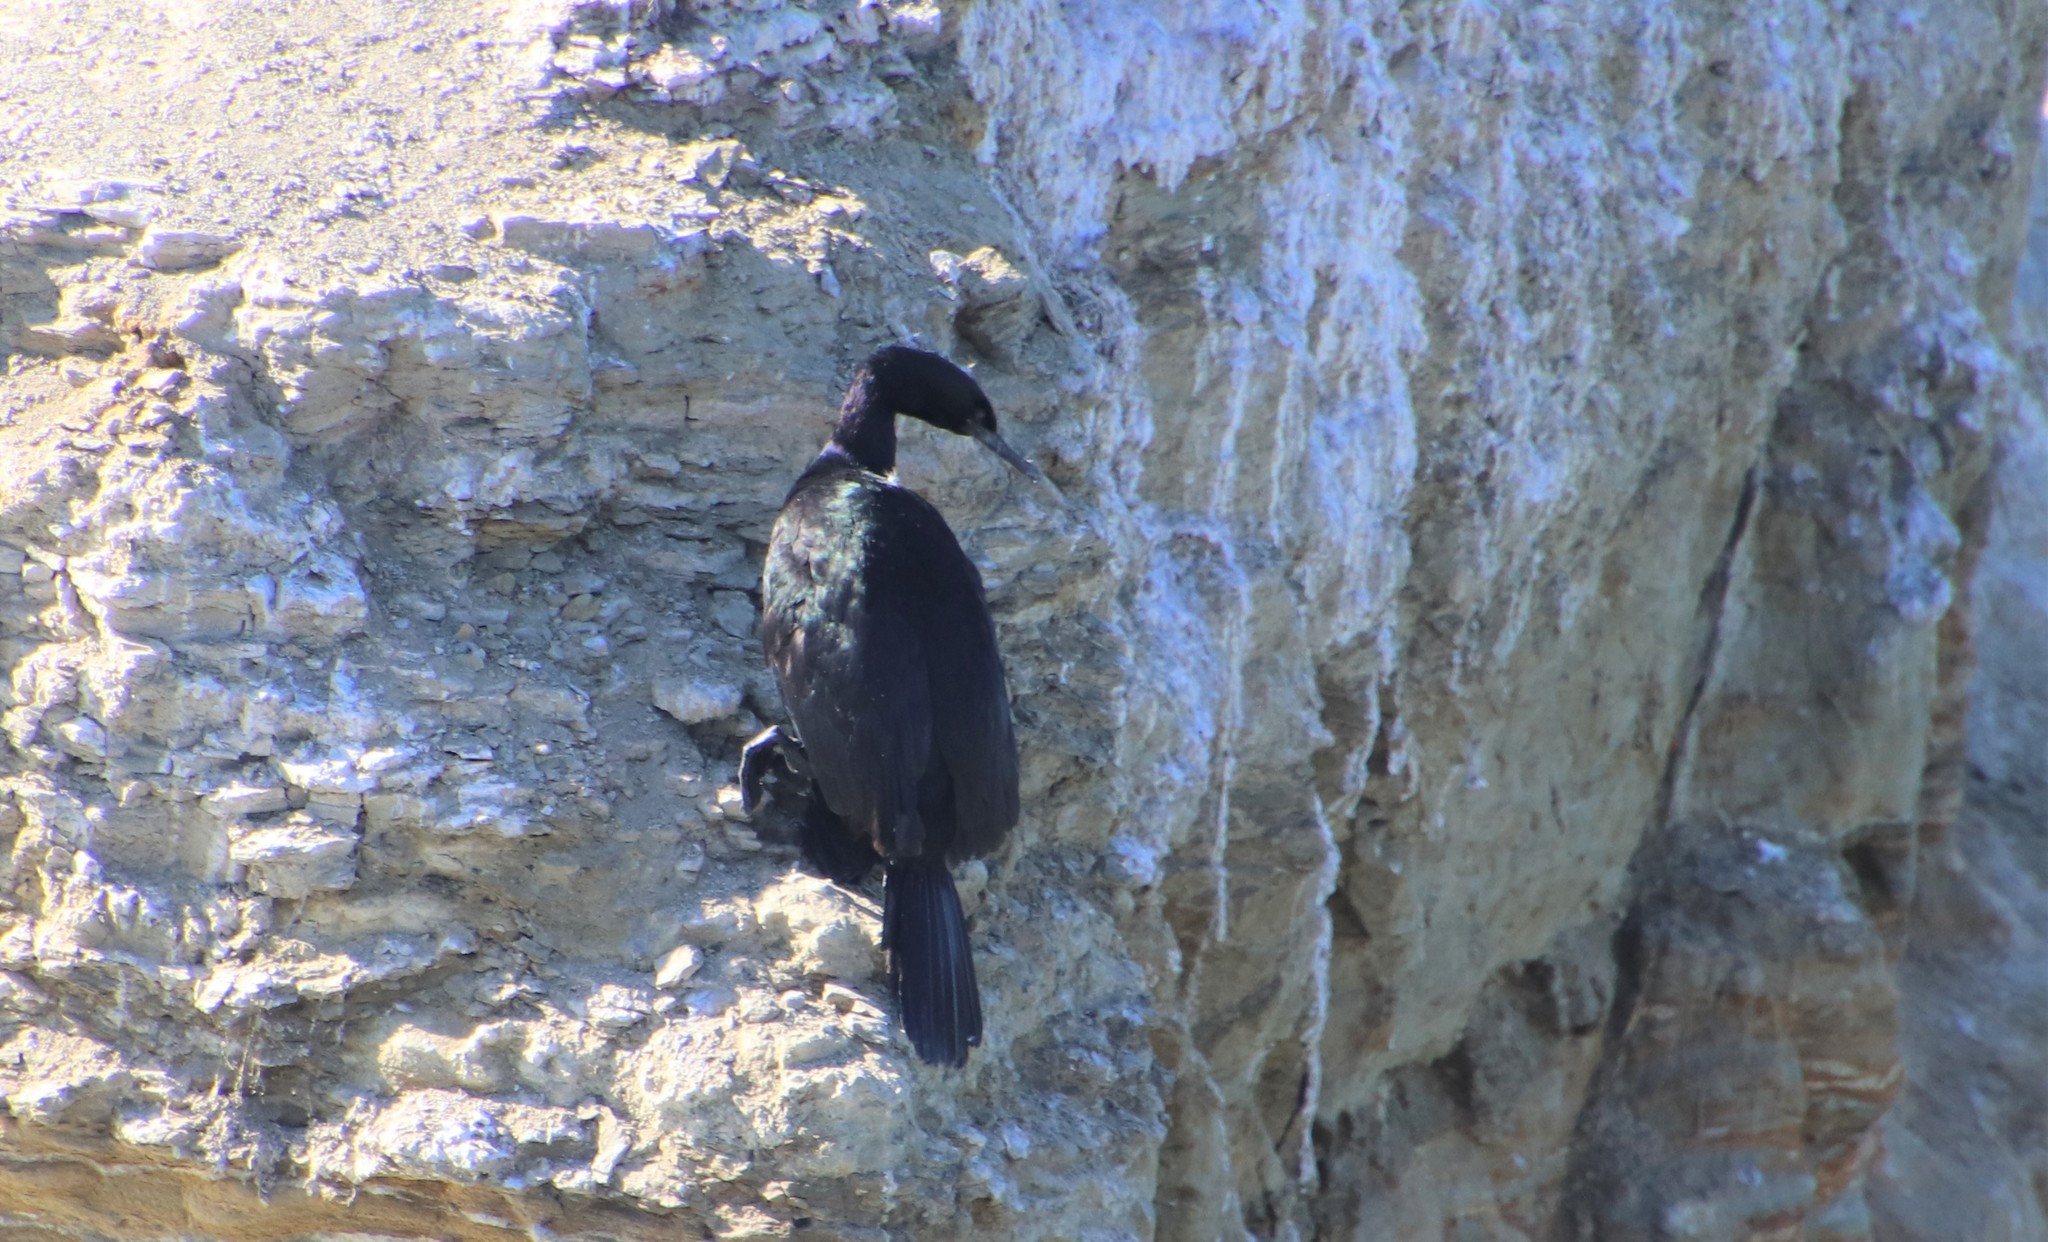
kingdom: Animalia
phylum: Chordata
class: Aves
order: Suliformes
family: Phalacrocoracidae
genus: Phalacrocorax
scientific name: Phalacrocorax pelagicus
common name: Pelagic cormorant
